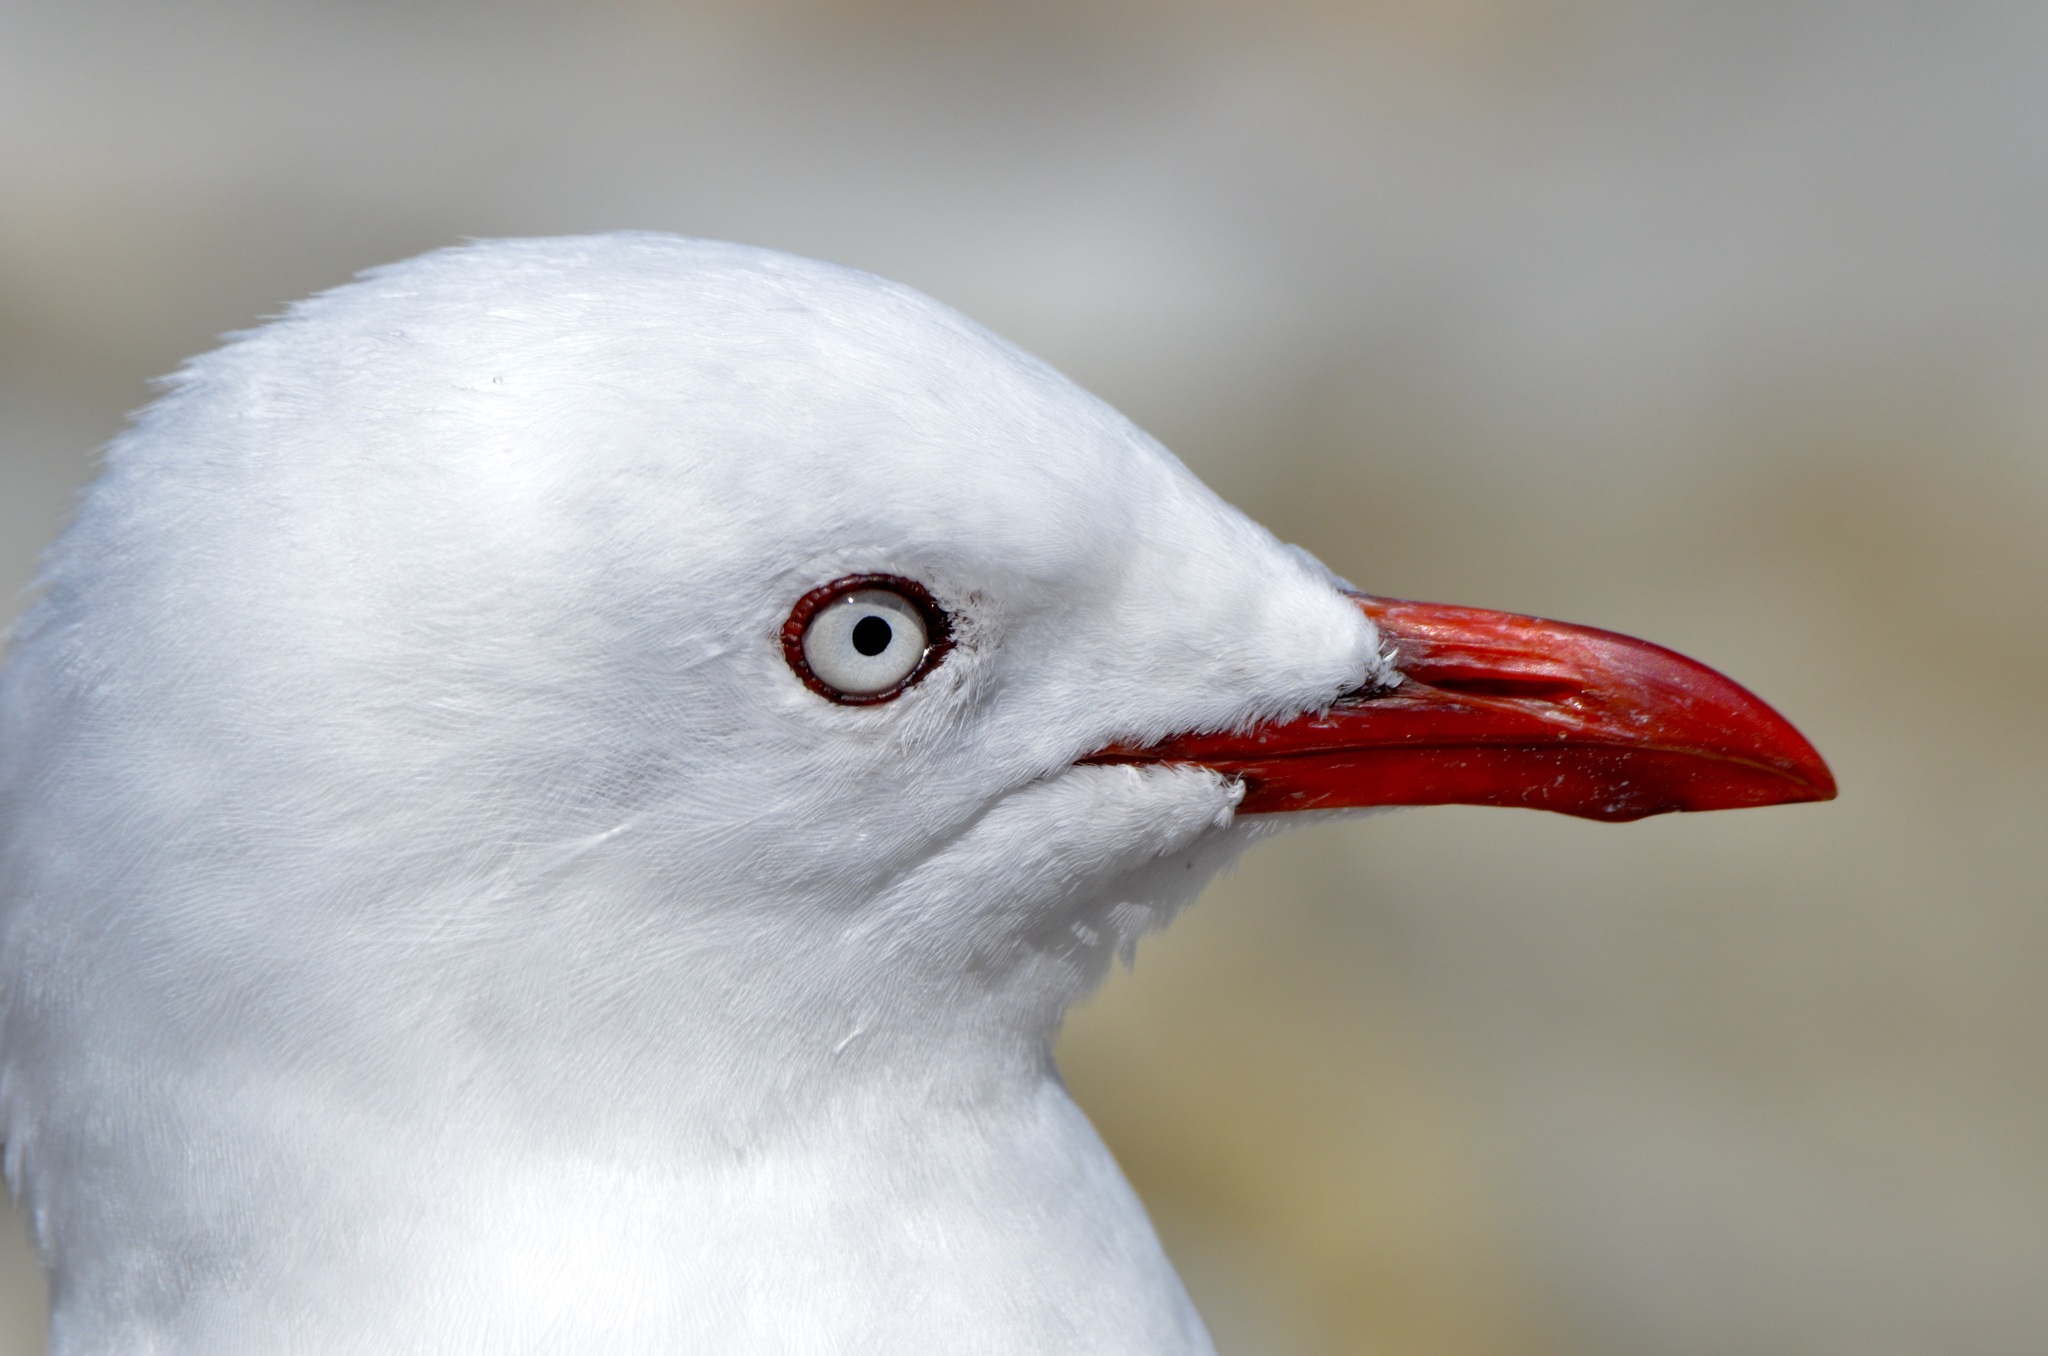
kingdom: Animalia
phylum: Chordata
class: Aves
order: Charadriiformes
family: Laridae
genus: Chroicocephalus
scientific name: Chroicocephalus novaehollandiae
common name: Silver gull
